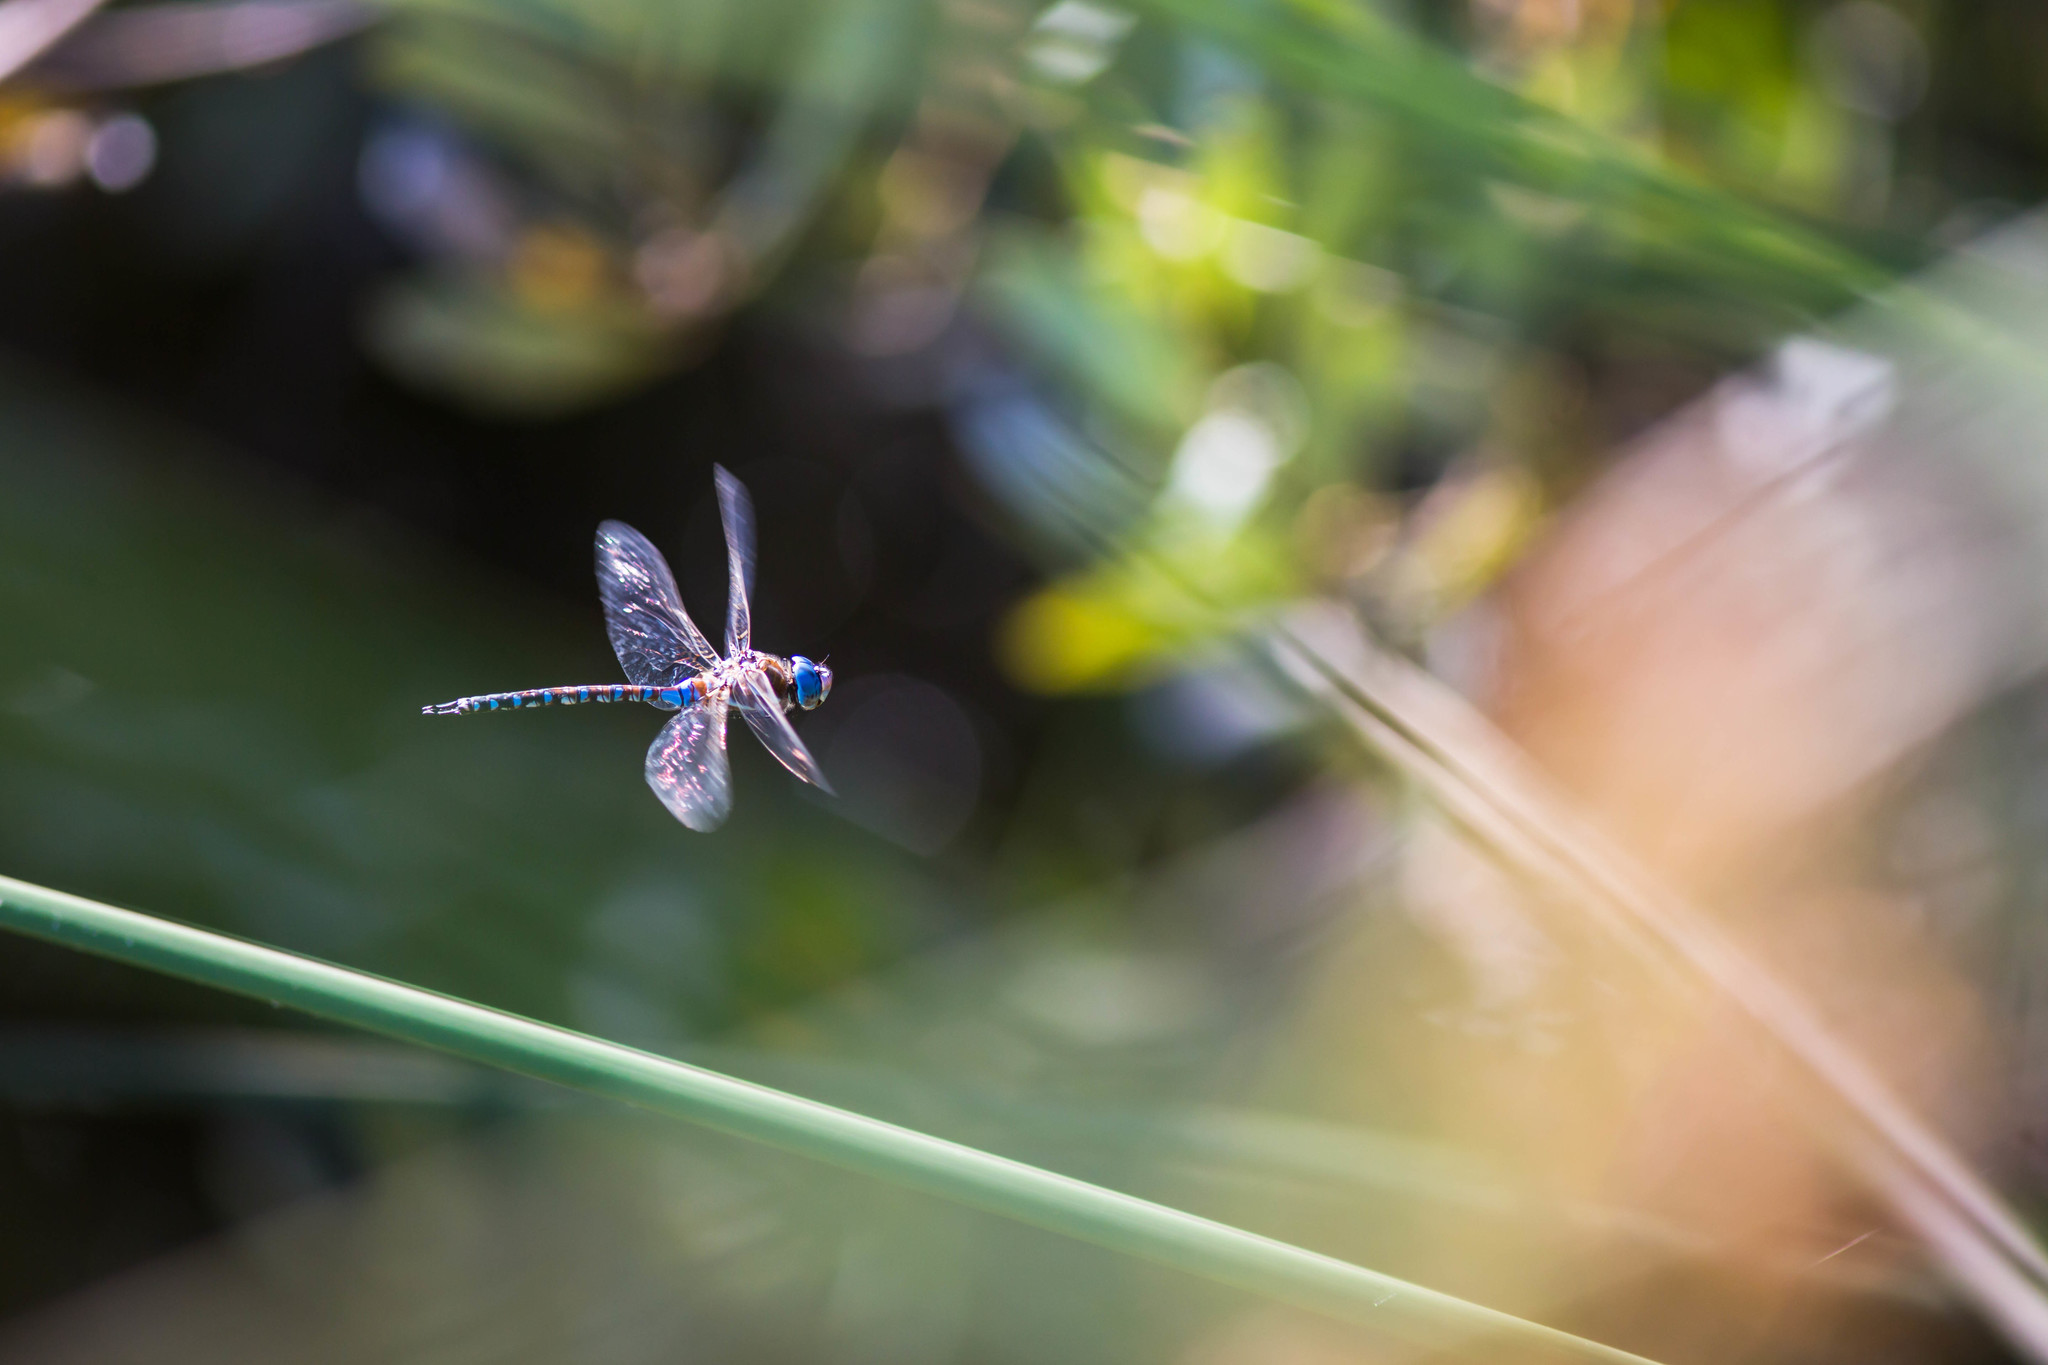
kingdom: Animalia
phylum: Arthropoda
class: Insecta
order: Odonata
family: Aeshnidae
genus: Rhionaeschna
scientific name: Rhionaeschna multicolor
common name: Blue-eyed darner
